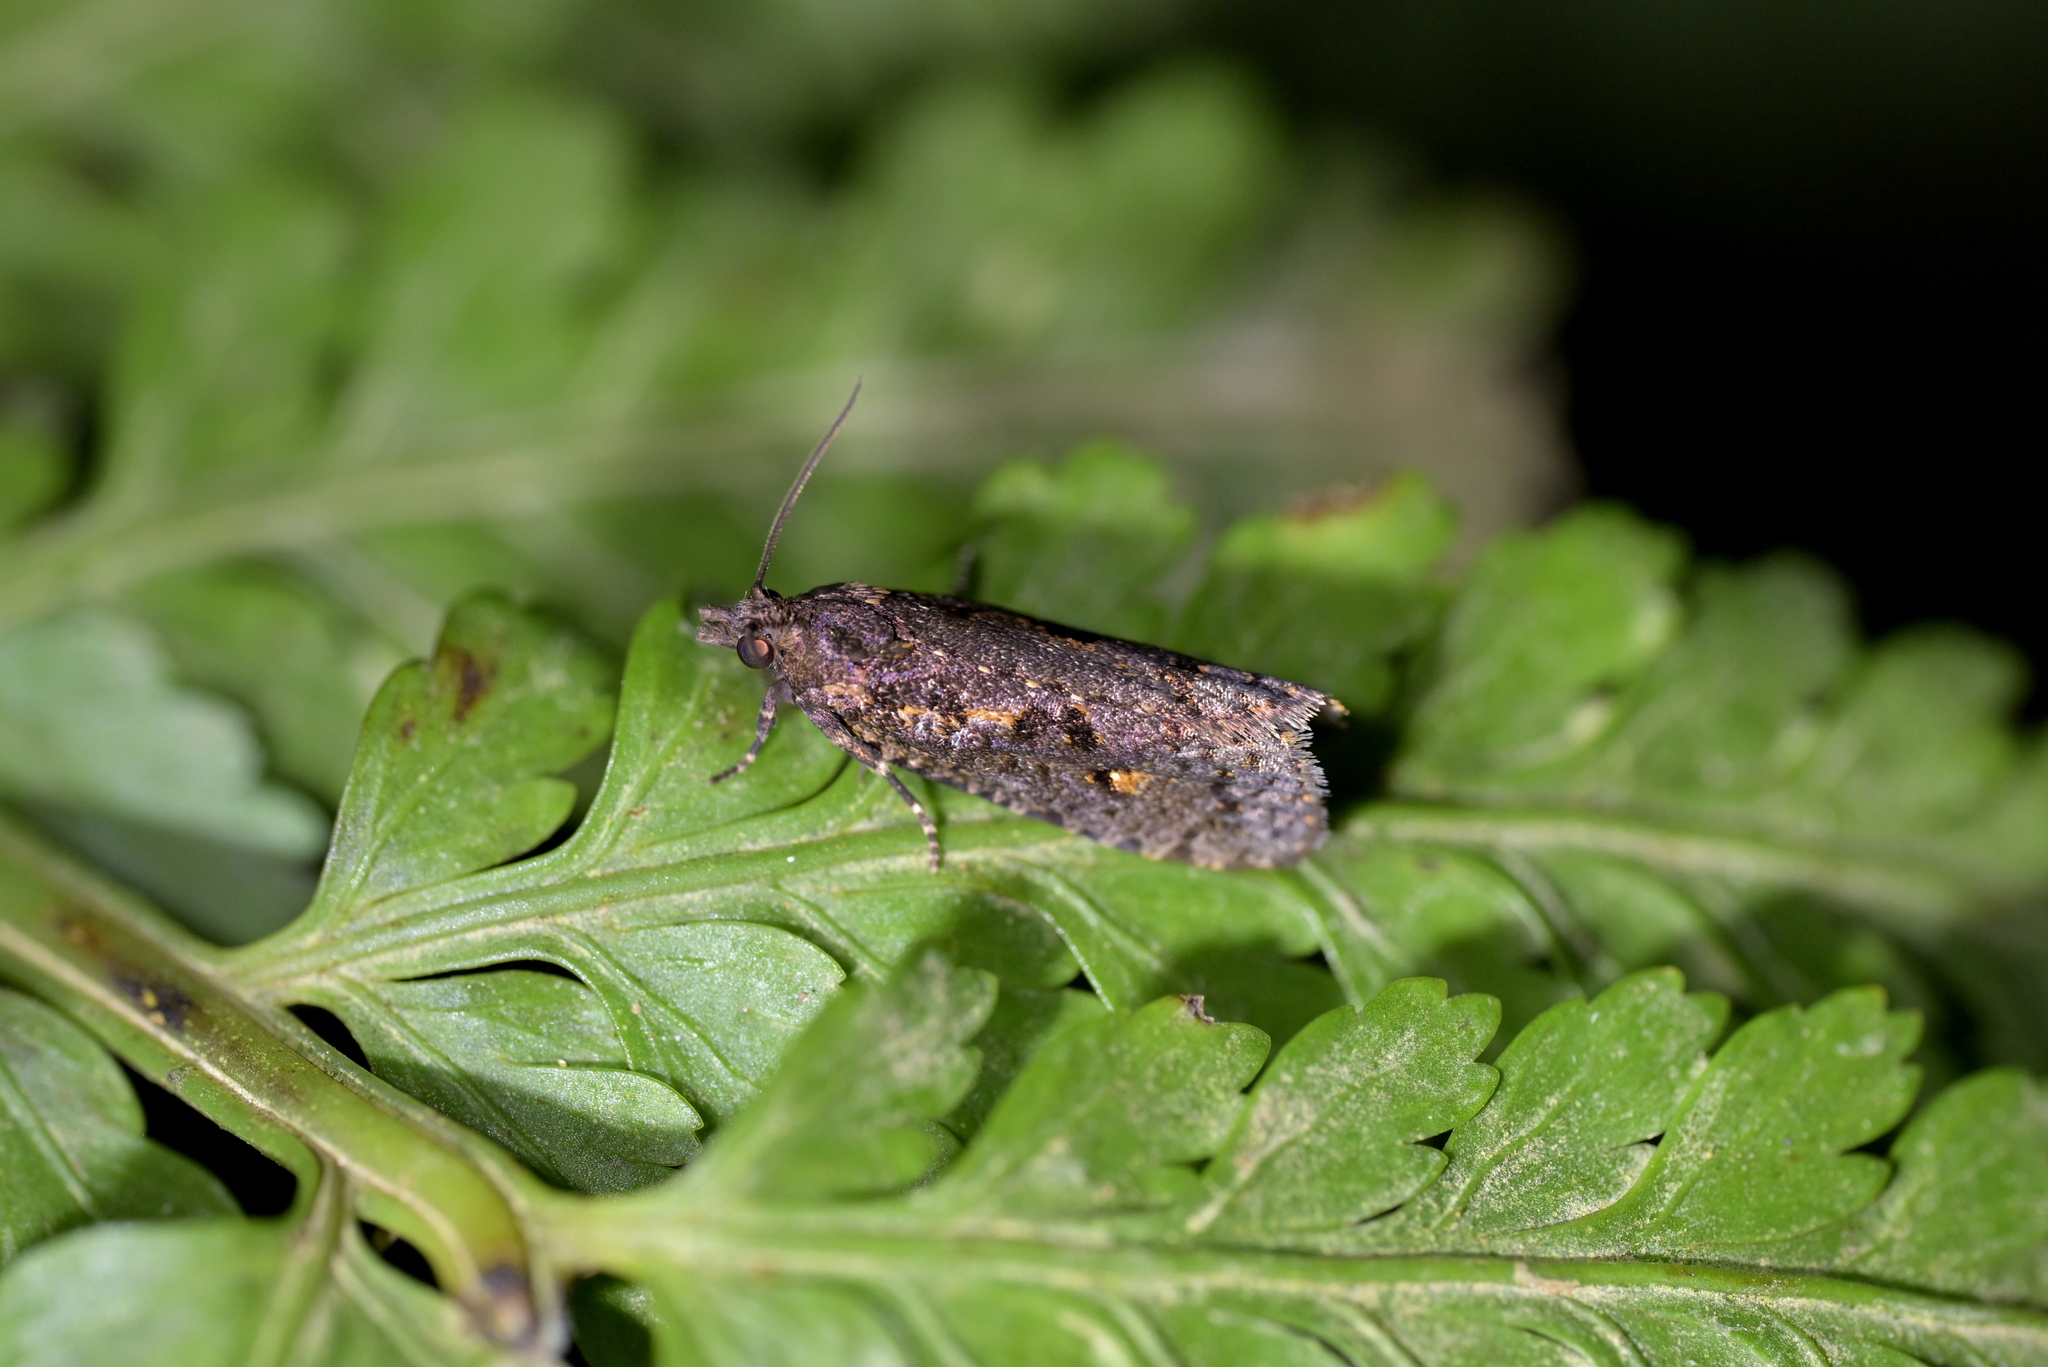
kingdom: Animalia
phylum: Arthropoda
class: Insecta
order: Lepidoptera
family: Tortricidae
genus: Cryptaspasma
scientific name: Cryptaspasma querula
